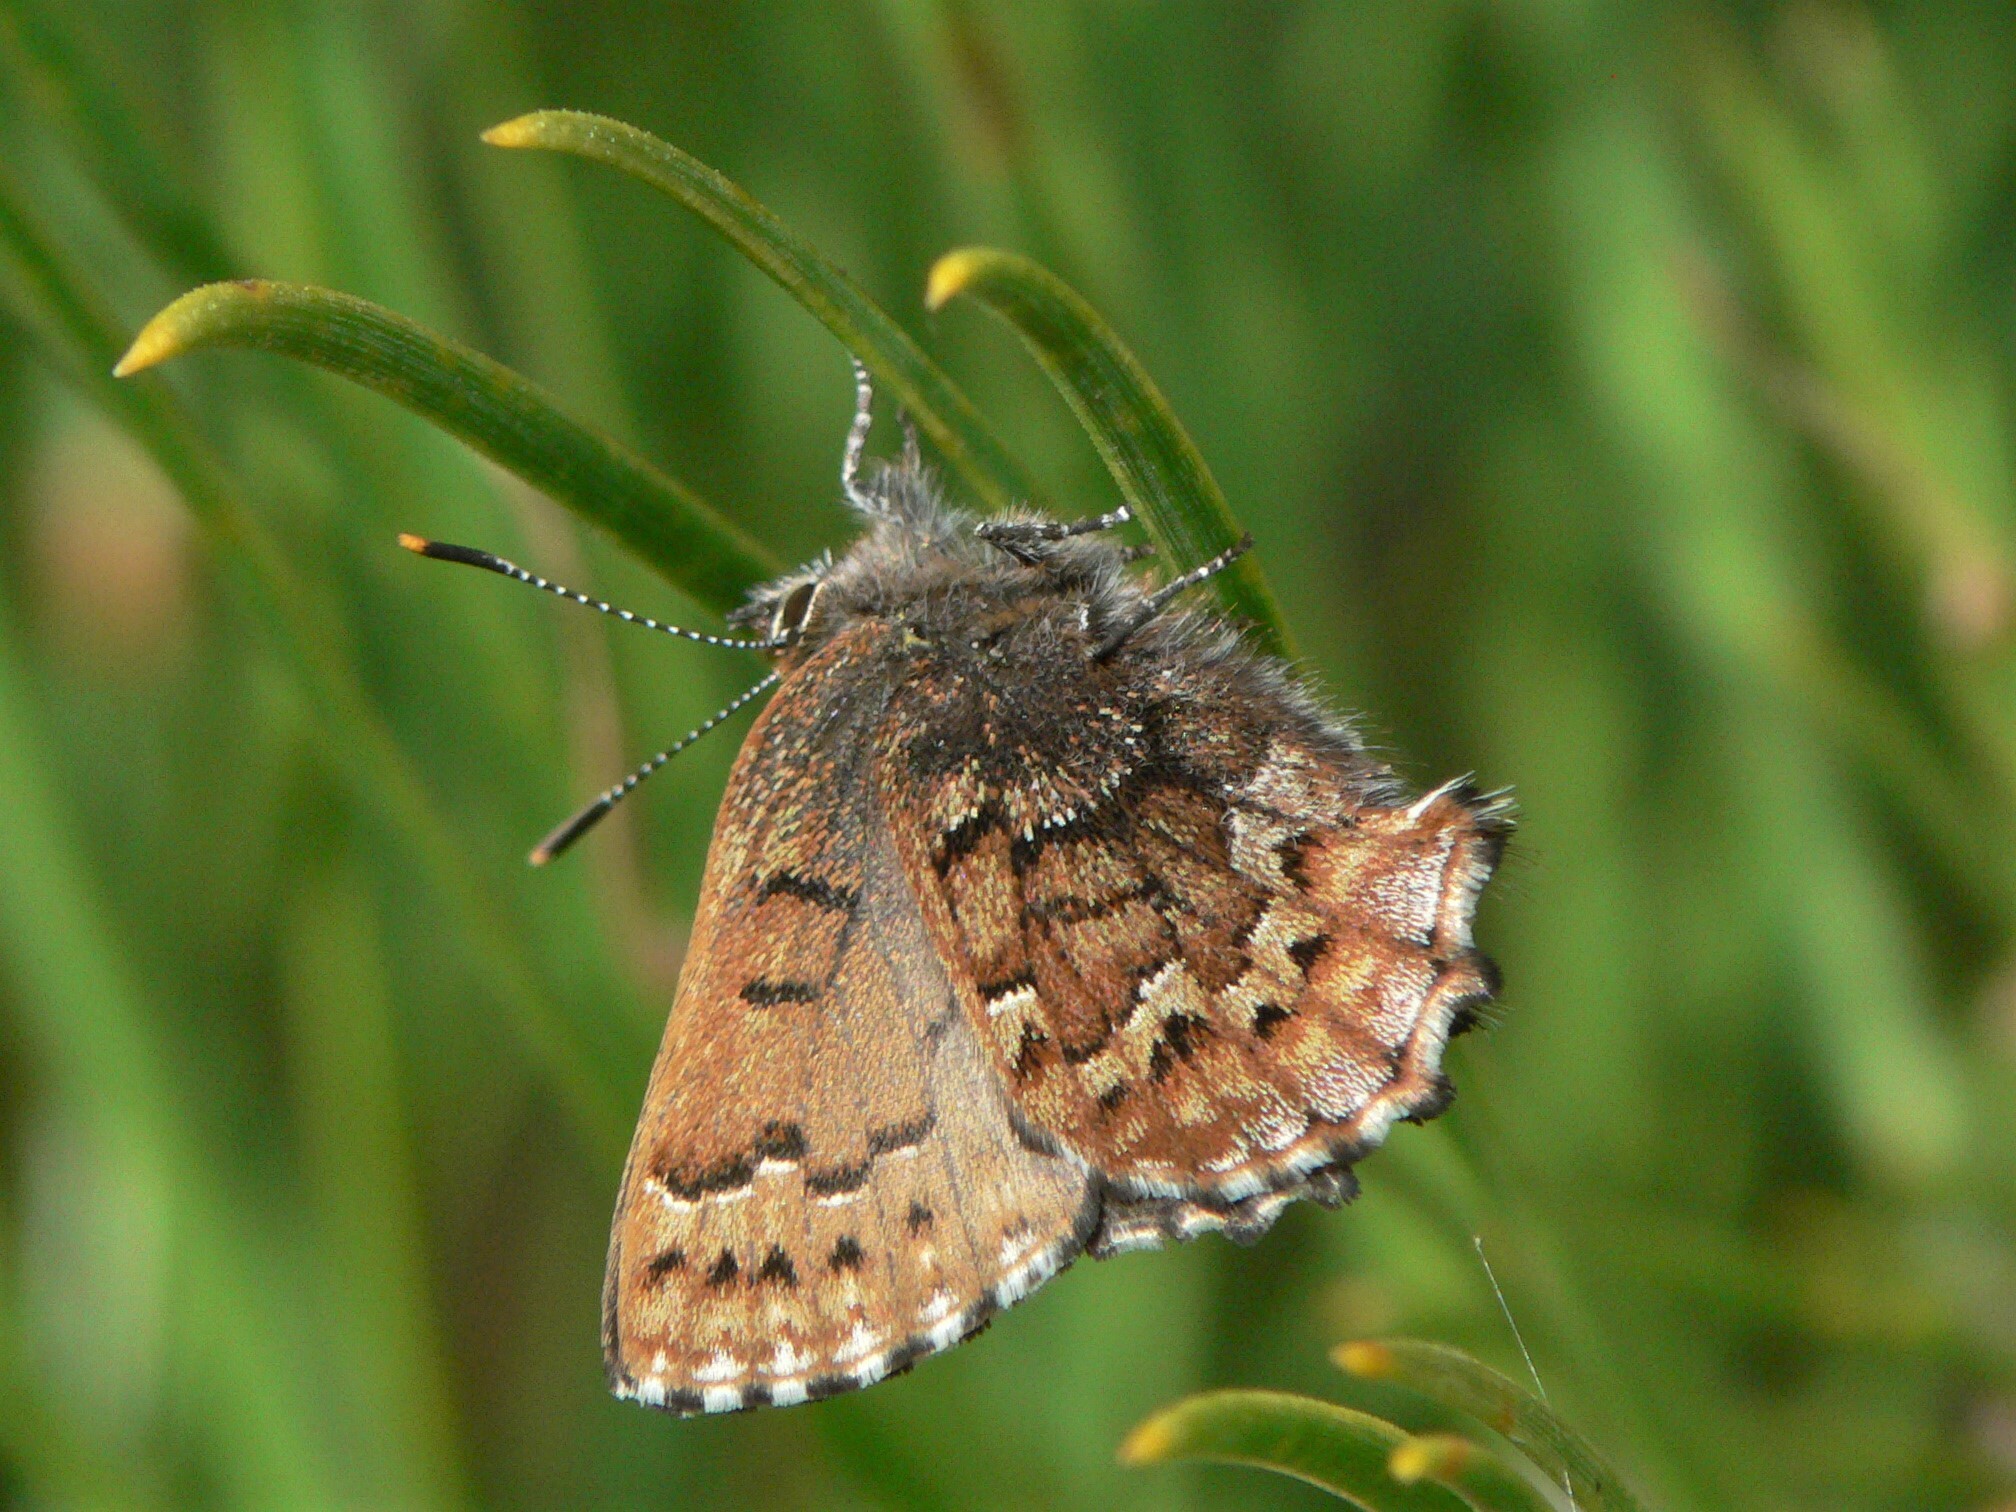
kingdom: Animalia
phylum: Arthropoda
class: Insecta
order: Lepidoptera
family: Lycaenidae
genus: Incisalia
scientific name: Incisalia niphon
